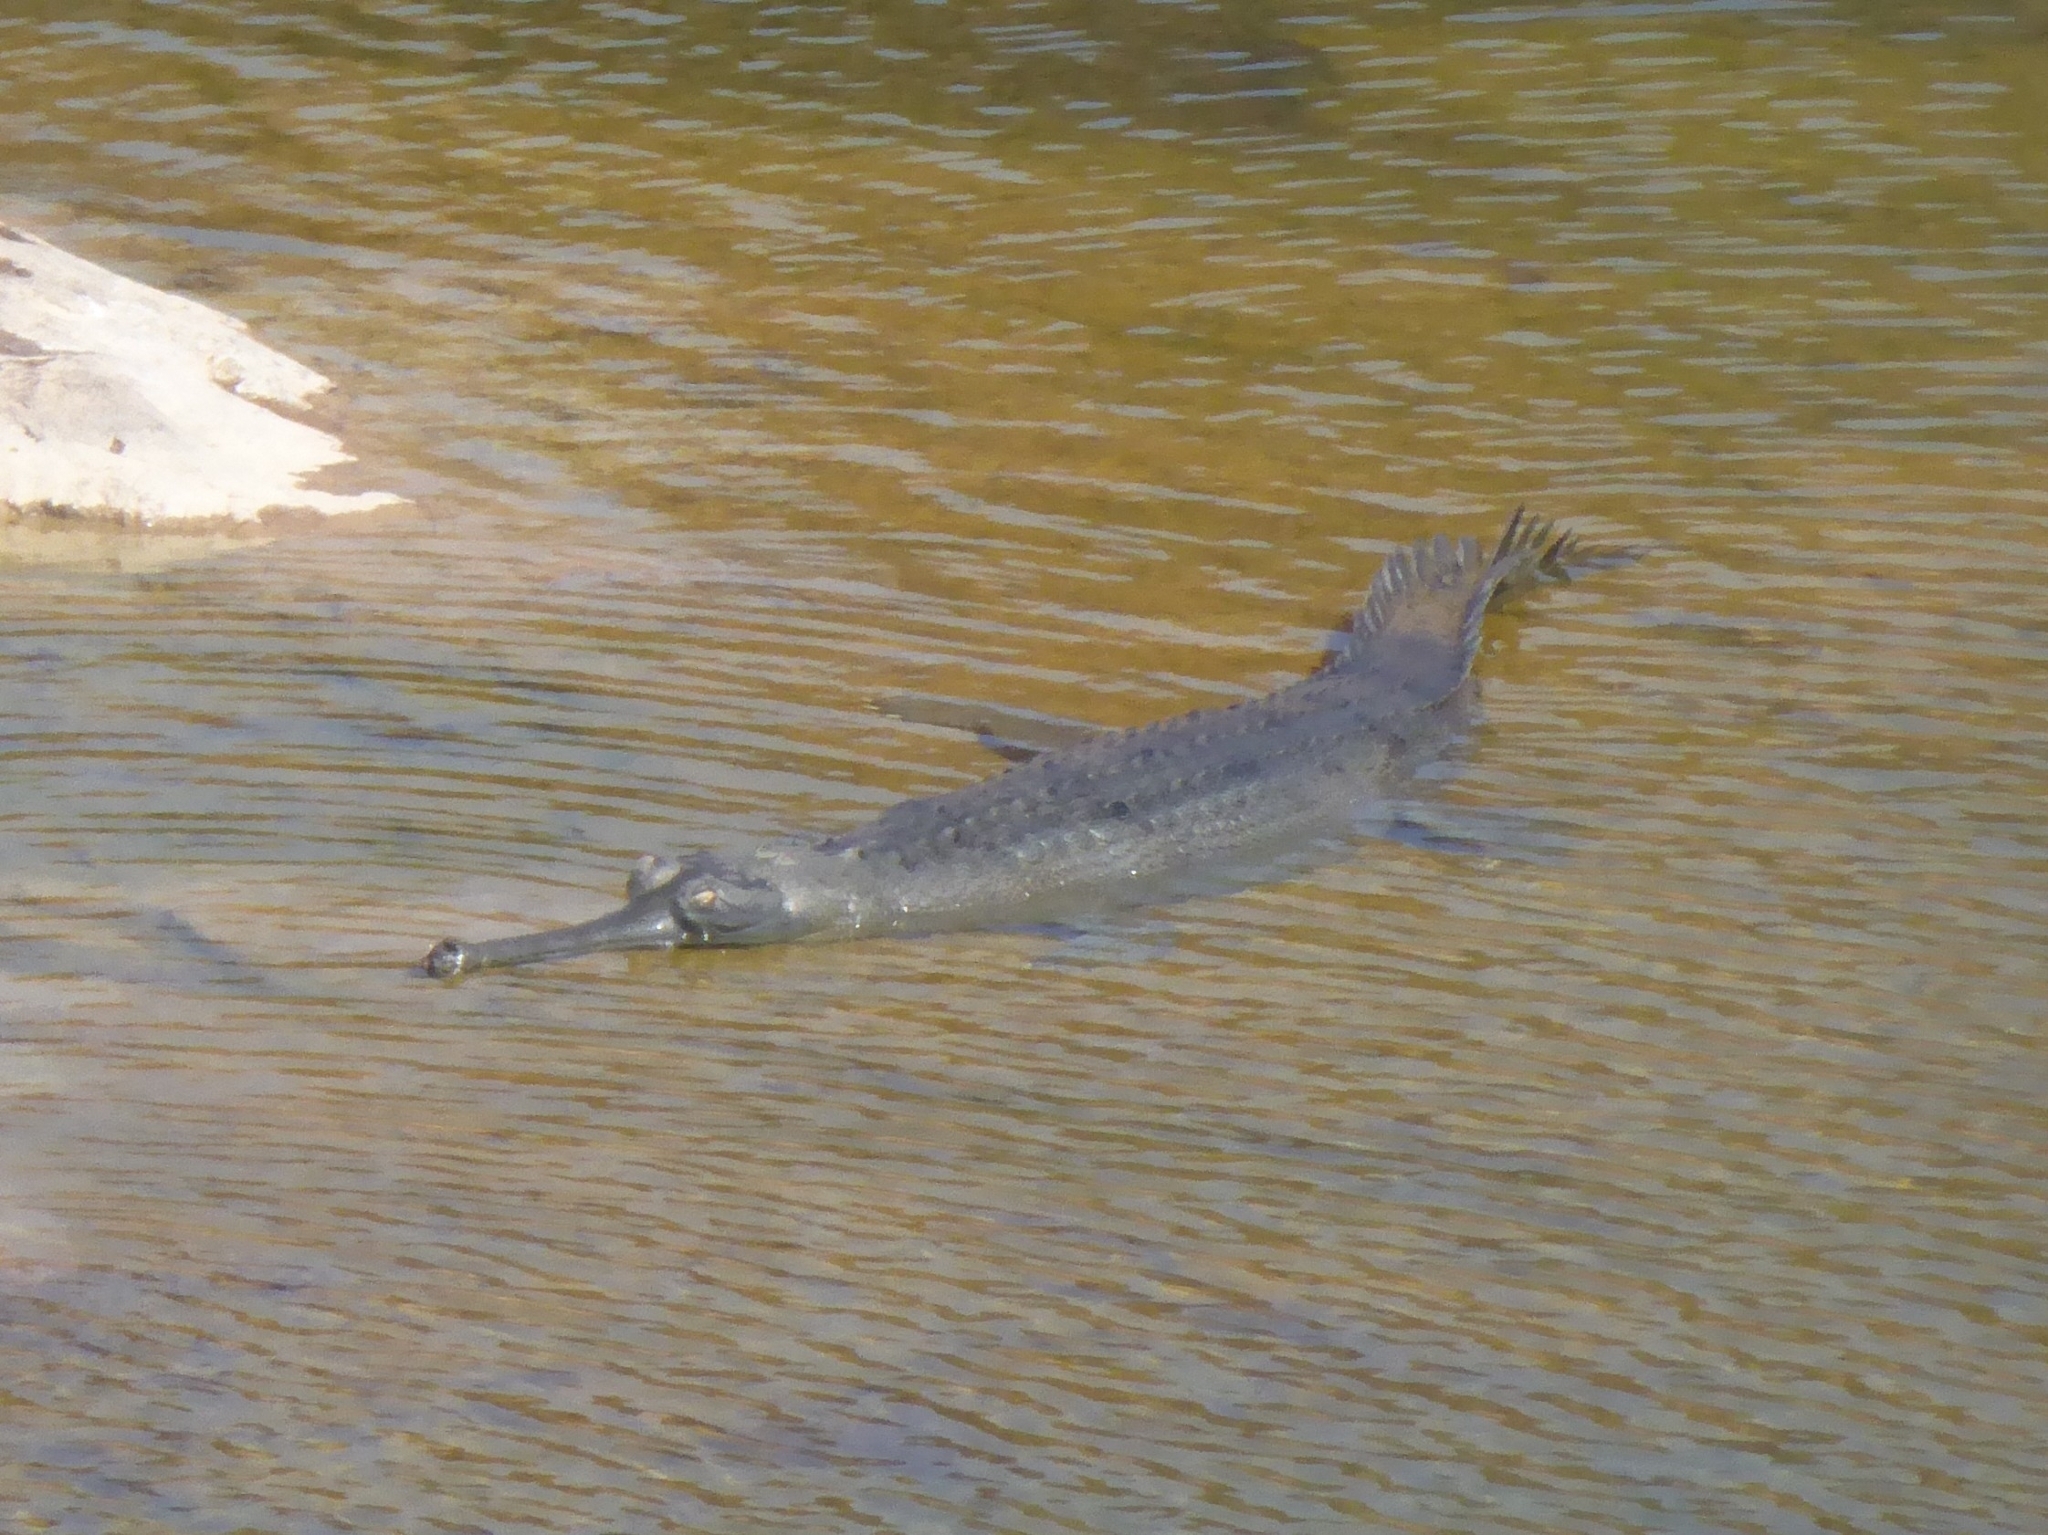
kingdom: Animalia
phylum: Chordata
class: Crocodylia
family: Gavialidae
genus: Gavialis
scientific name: Gavialis gangeticus
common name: Gharial
